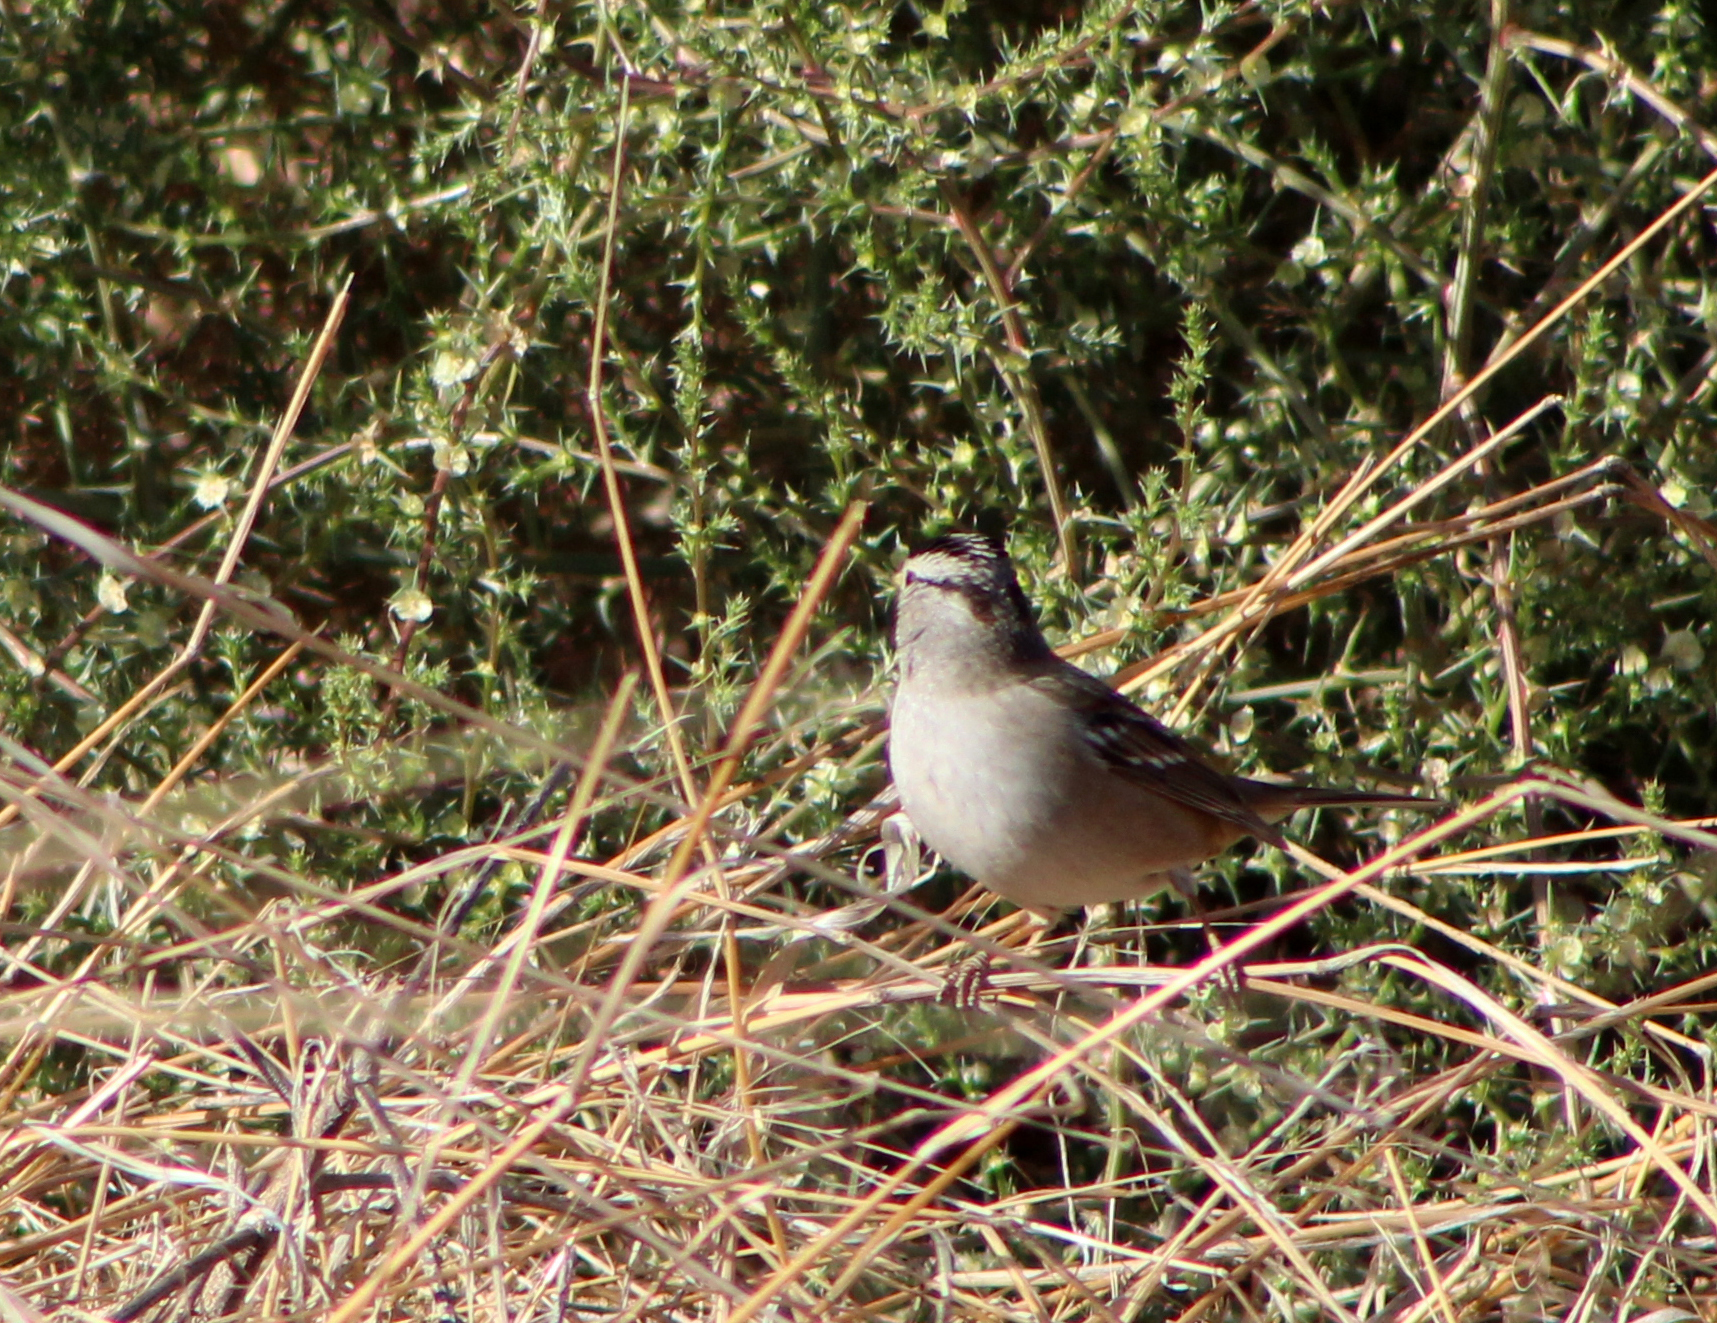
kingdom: Animalia
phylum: Chordata
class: Aves
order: Passeriformes
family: Passerellidae
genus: Zonotrichia
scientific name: Zonotrichia leucophrys
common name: White-crowned sparrow
